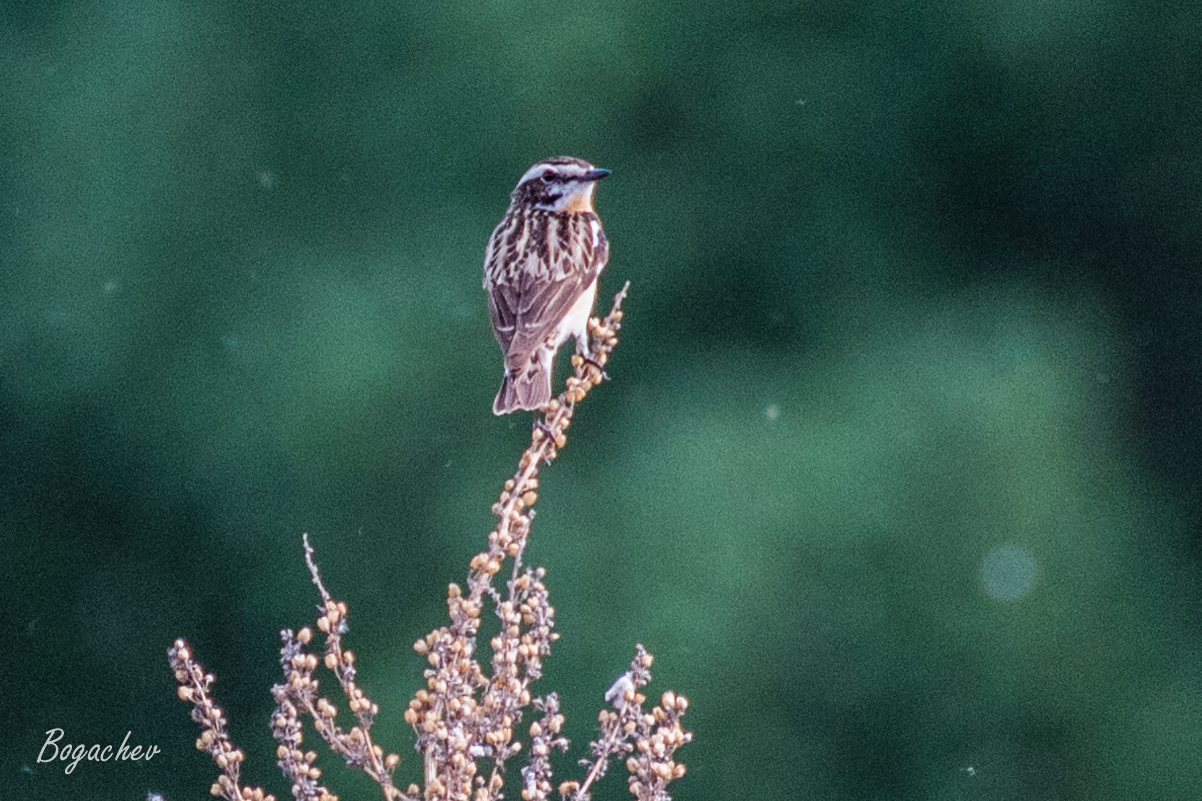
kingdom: Animalia
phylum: Chordata
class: Aves
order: Passeriformes
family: Muscicapidae
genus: Saxicola
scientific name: Saxicola rubetra
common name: Whinchat
